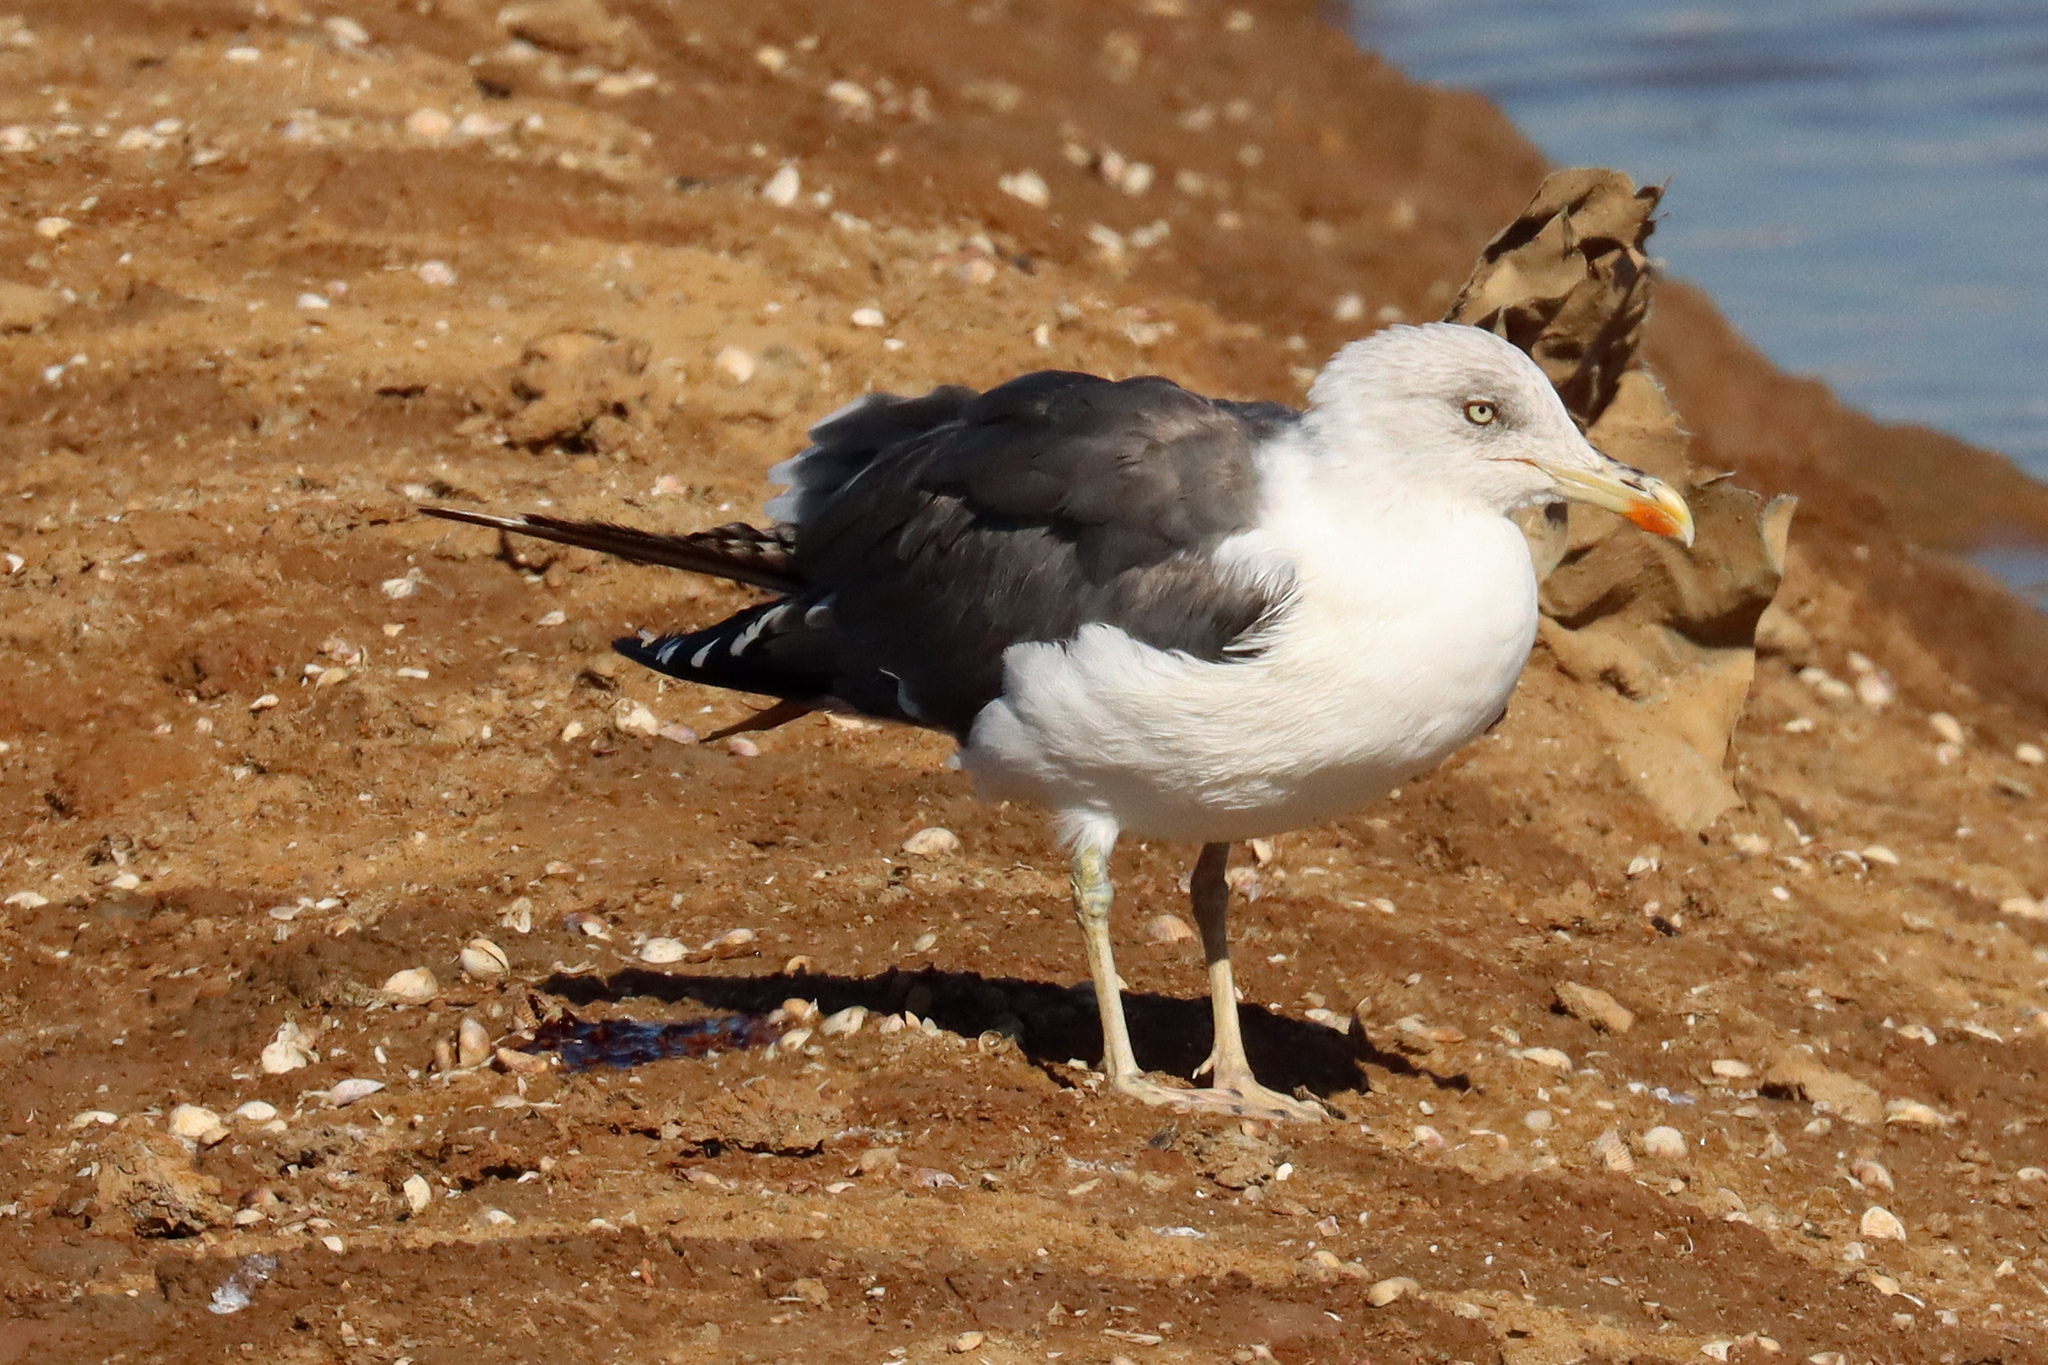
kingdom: Animalia
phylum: Chordata
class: Aves
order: Charadriiformes
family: Laridae
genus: Larus
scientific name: Larus fuscus
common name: Lesser black-backed gull
